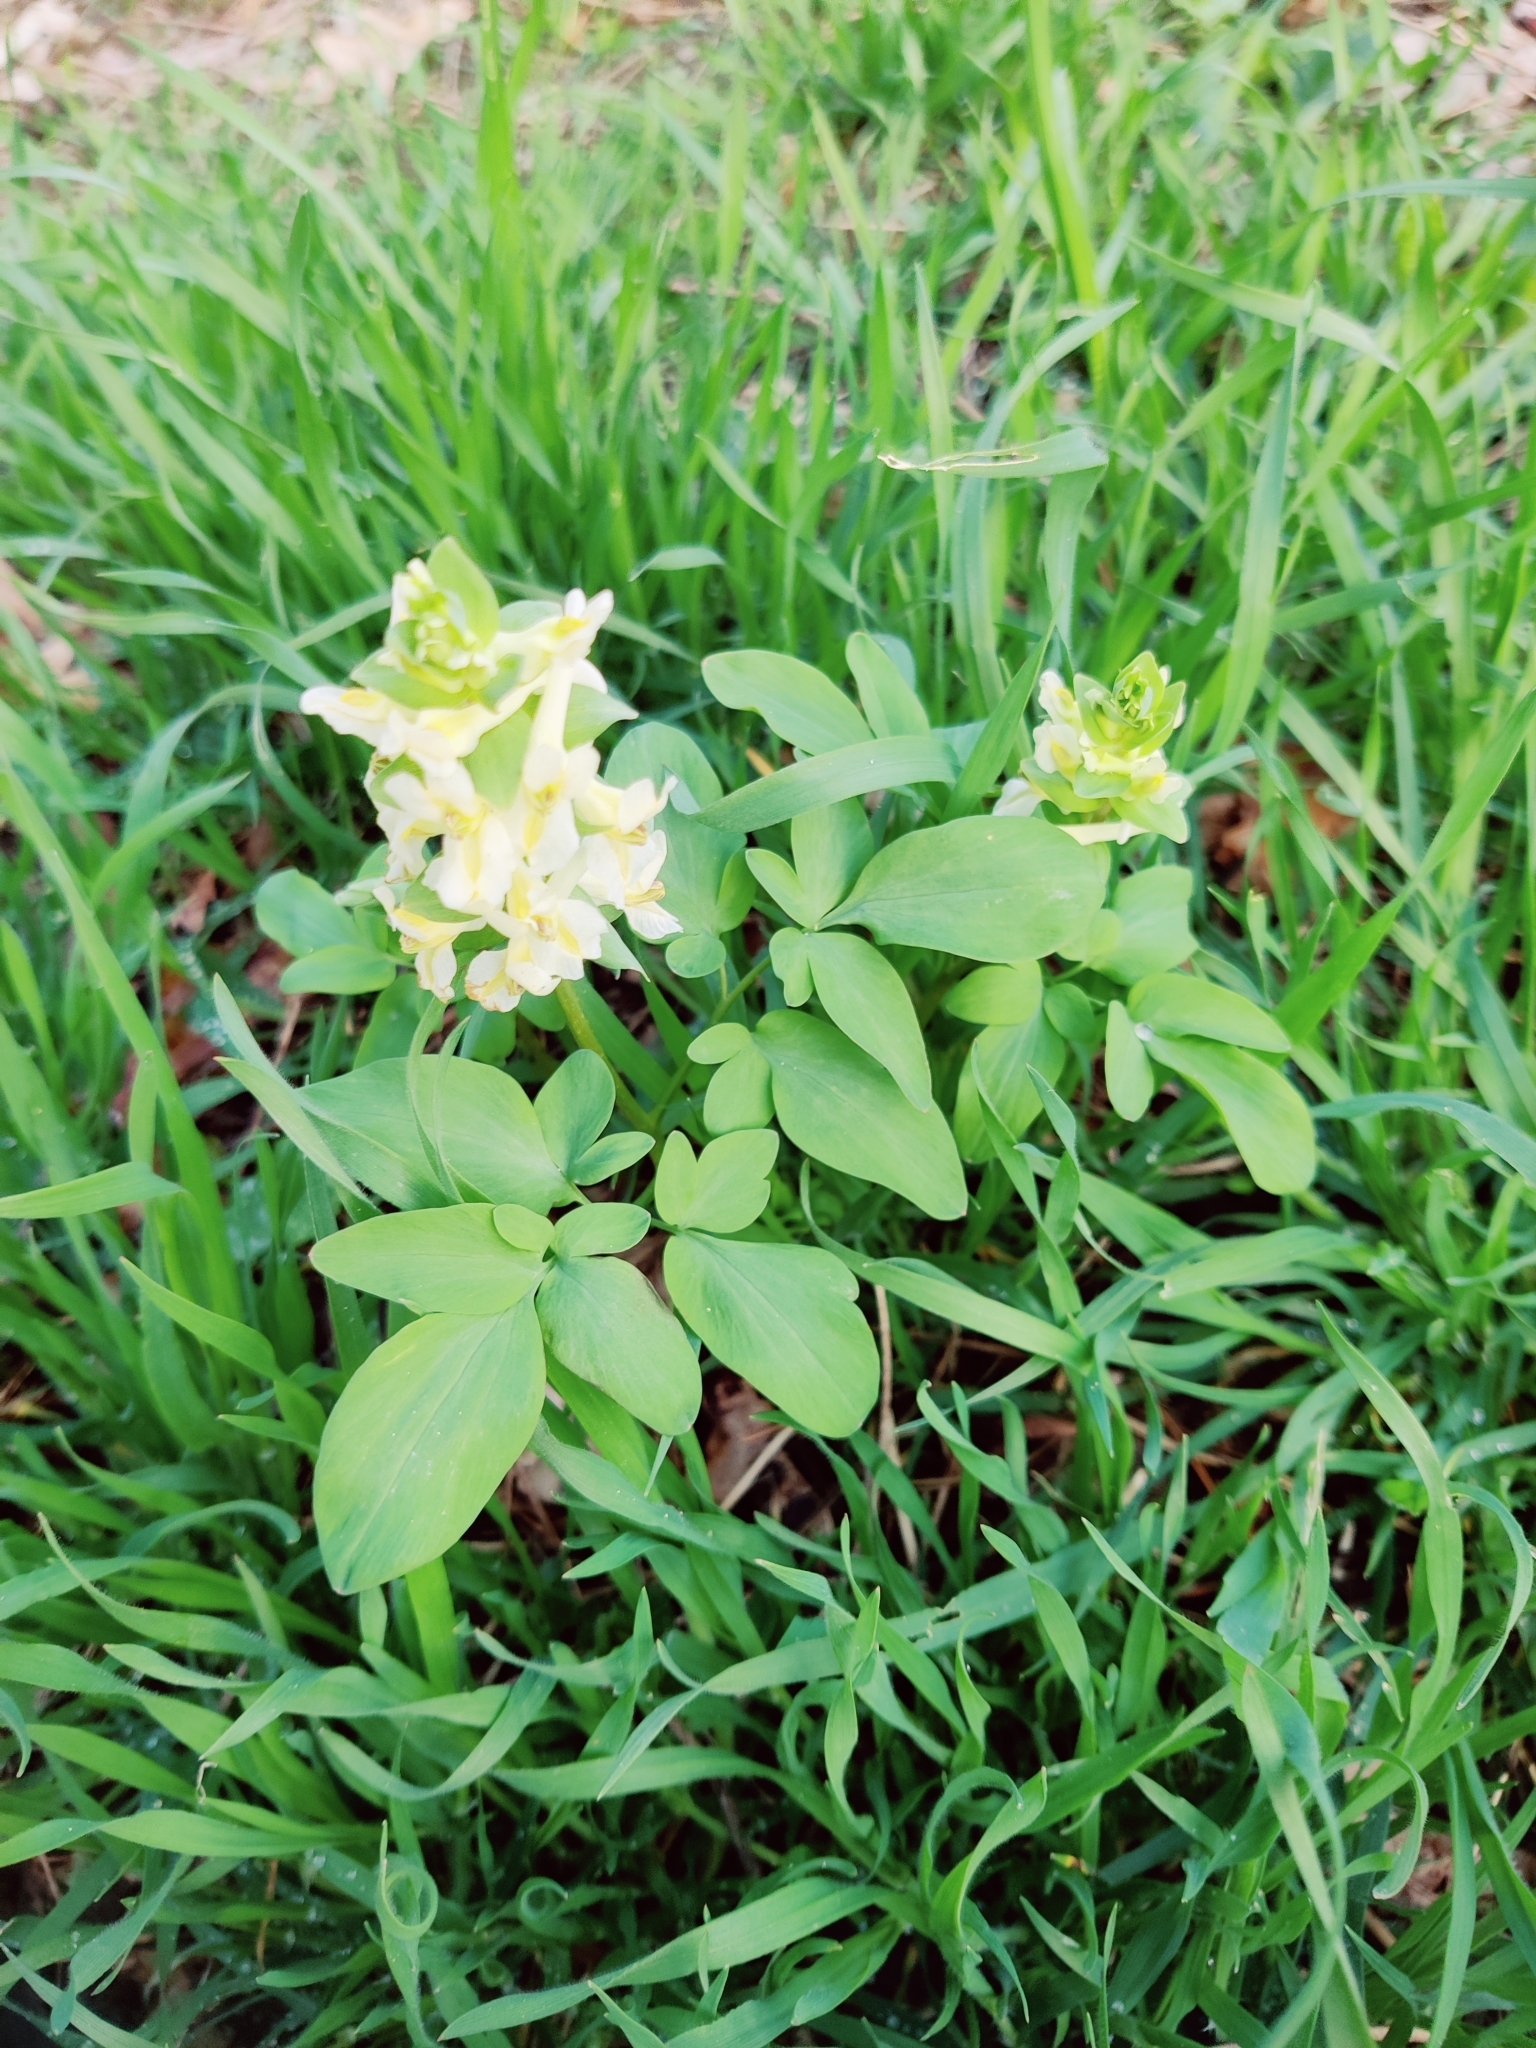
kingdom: Plantae
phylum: Tracheophyta
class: Magnoliopsida
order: Ranunculales
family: Papaveraceae
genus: Corydalis
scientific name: Corydalis cava
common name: Hollowroot
